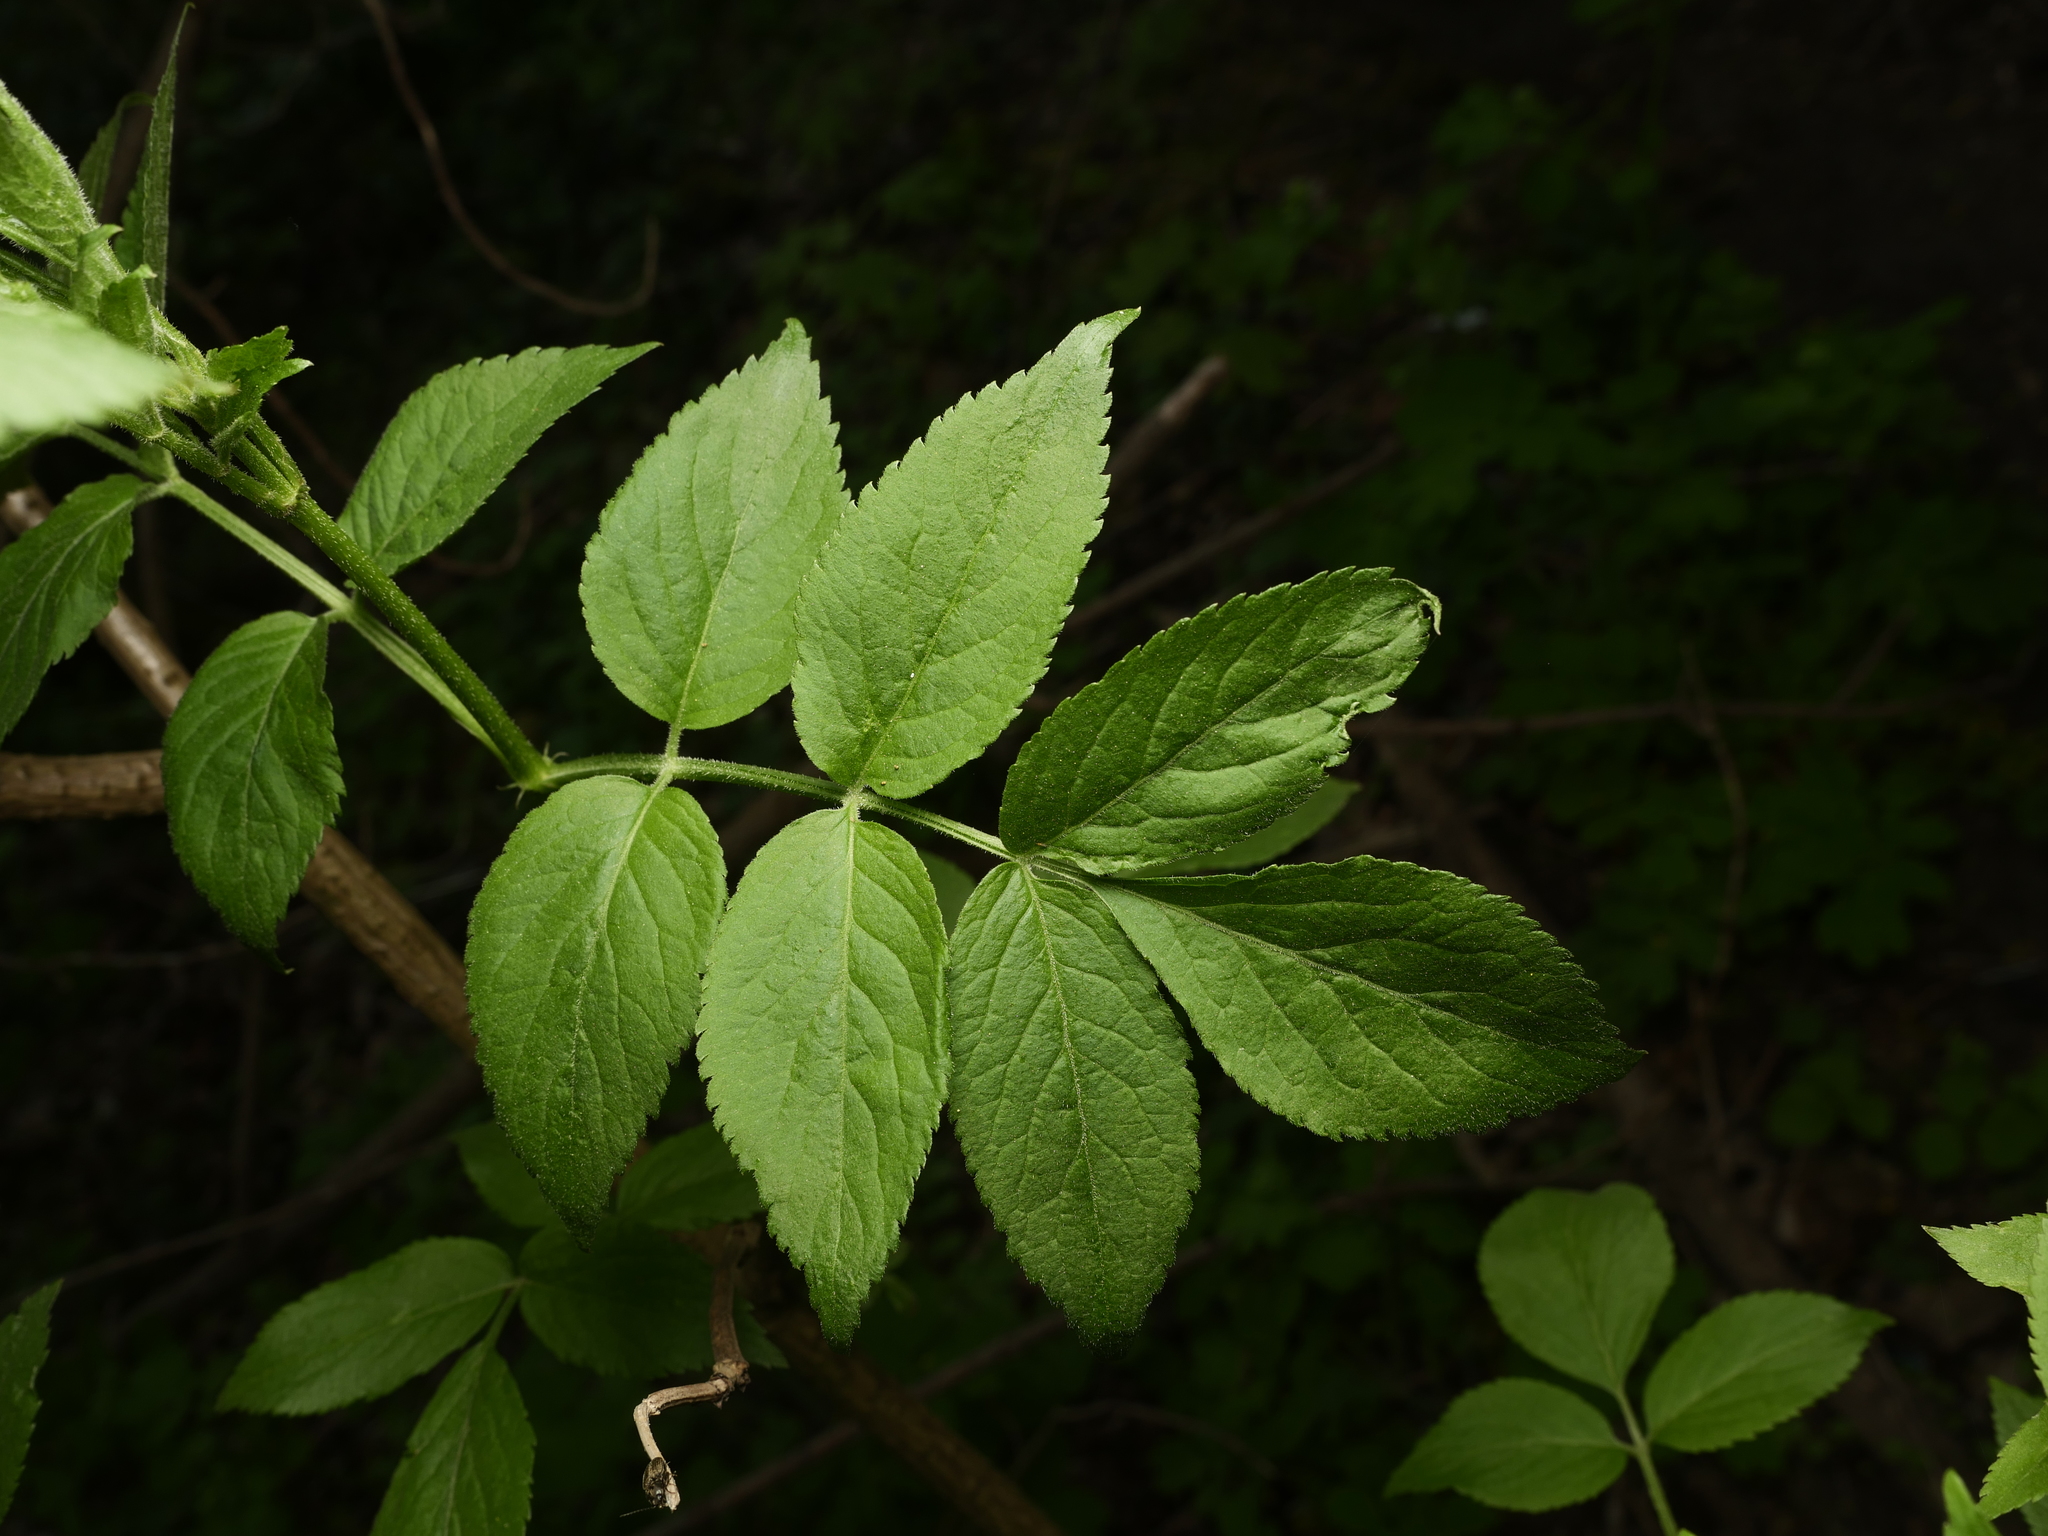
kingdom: Plantae
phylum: Tracheophyta
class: Magnoliopsida
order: Dipsacales
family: Viburnaceae
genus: Sambucus
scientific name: Sambucus nigra
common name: Elder
